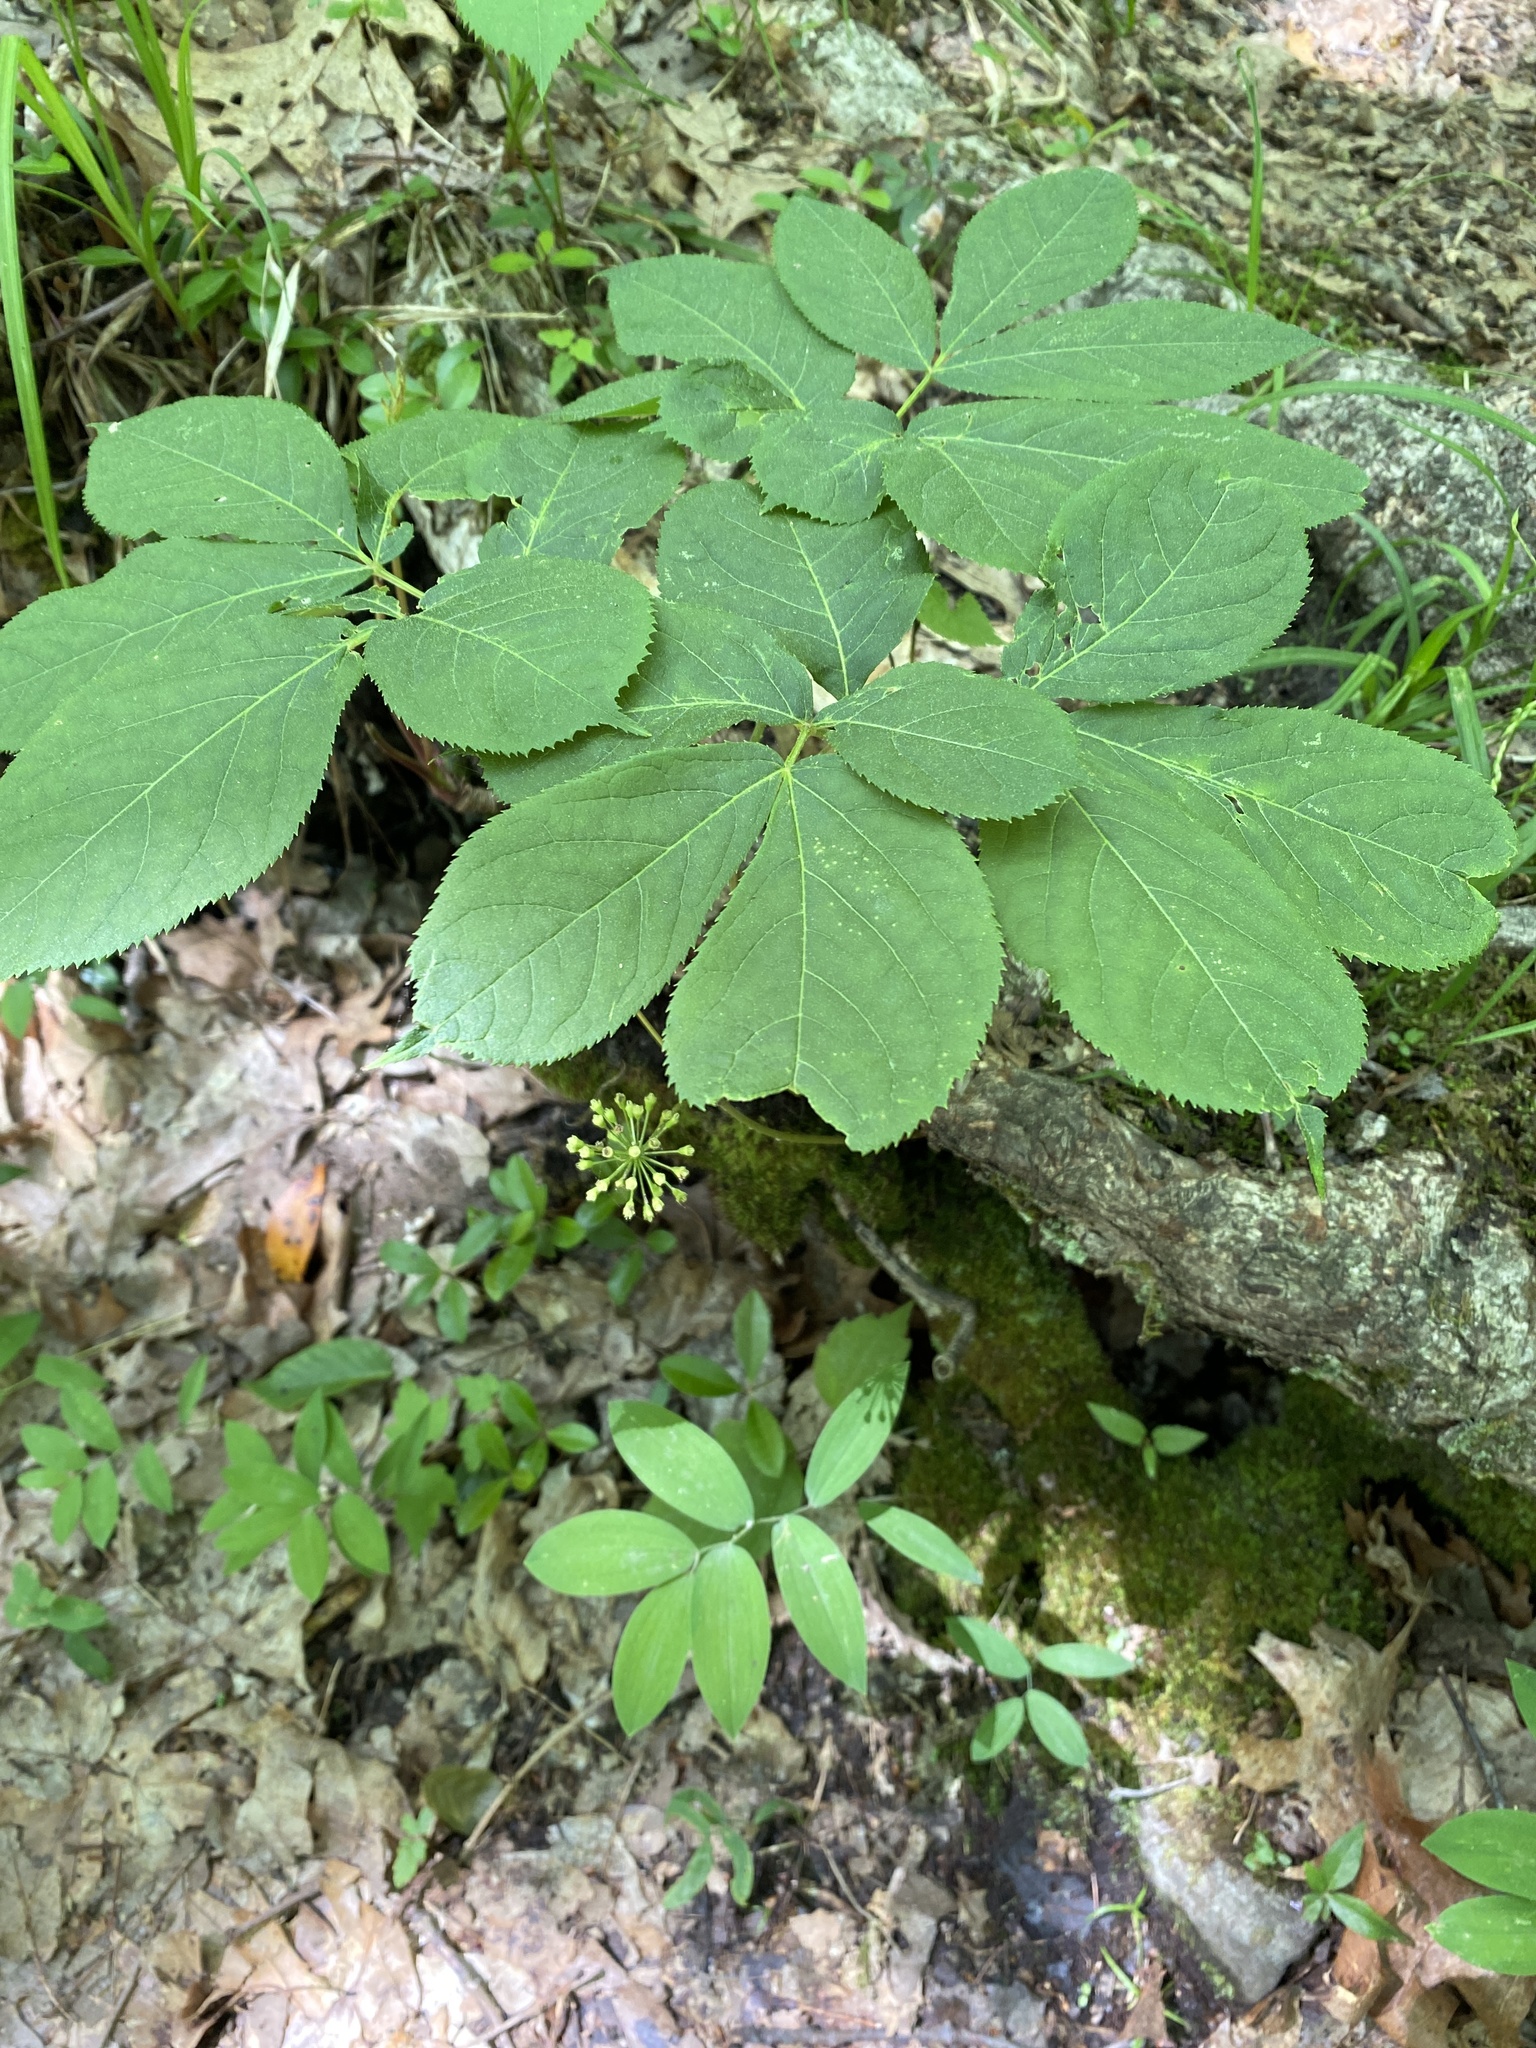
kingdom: Plantae
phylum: Tracheophyta
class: Magnoliopsida
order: Apiales
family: Araliaceae
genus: Aralia
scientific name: Aralia nudicaulis
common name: Wild sarsaparilla
